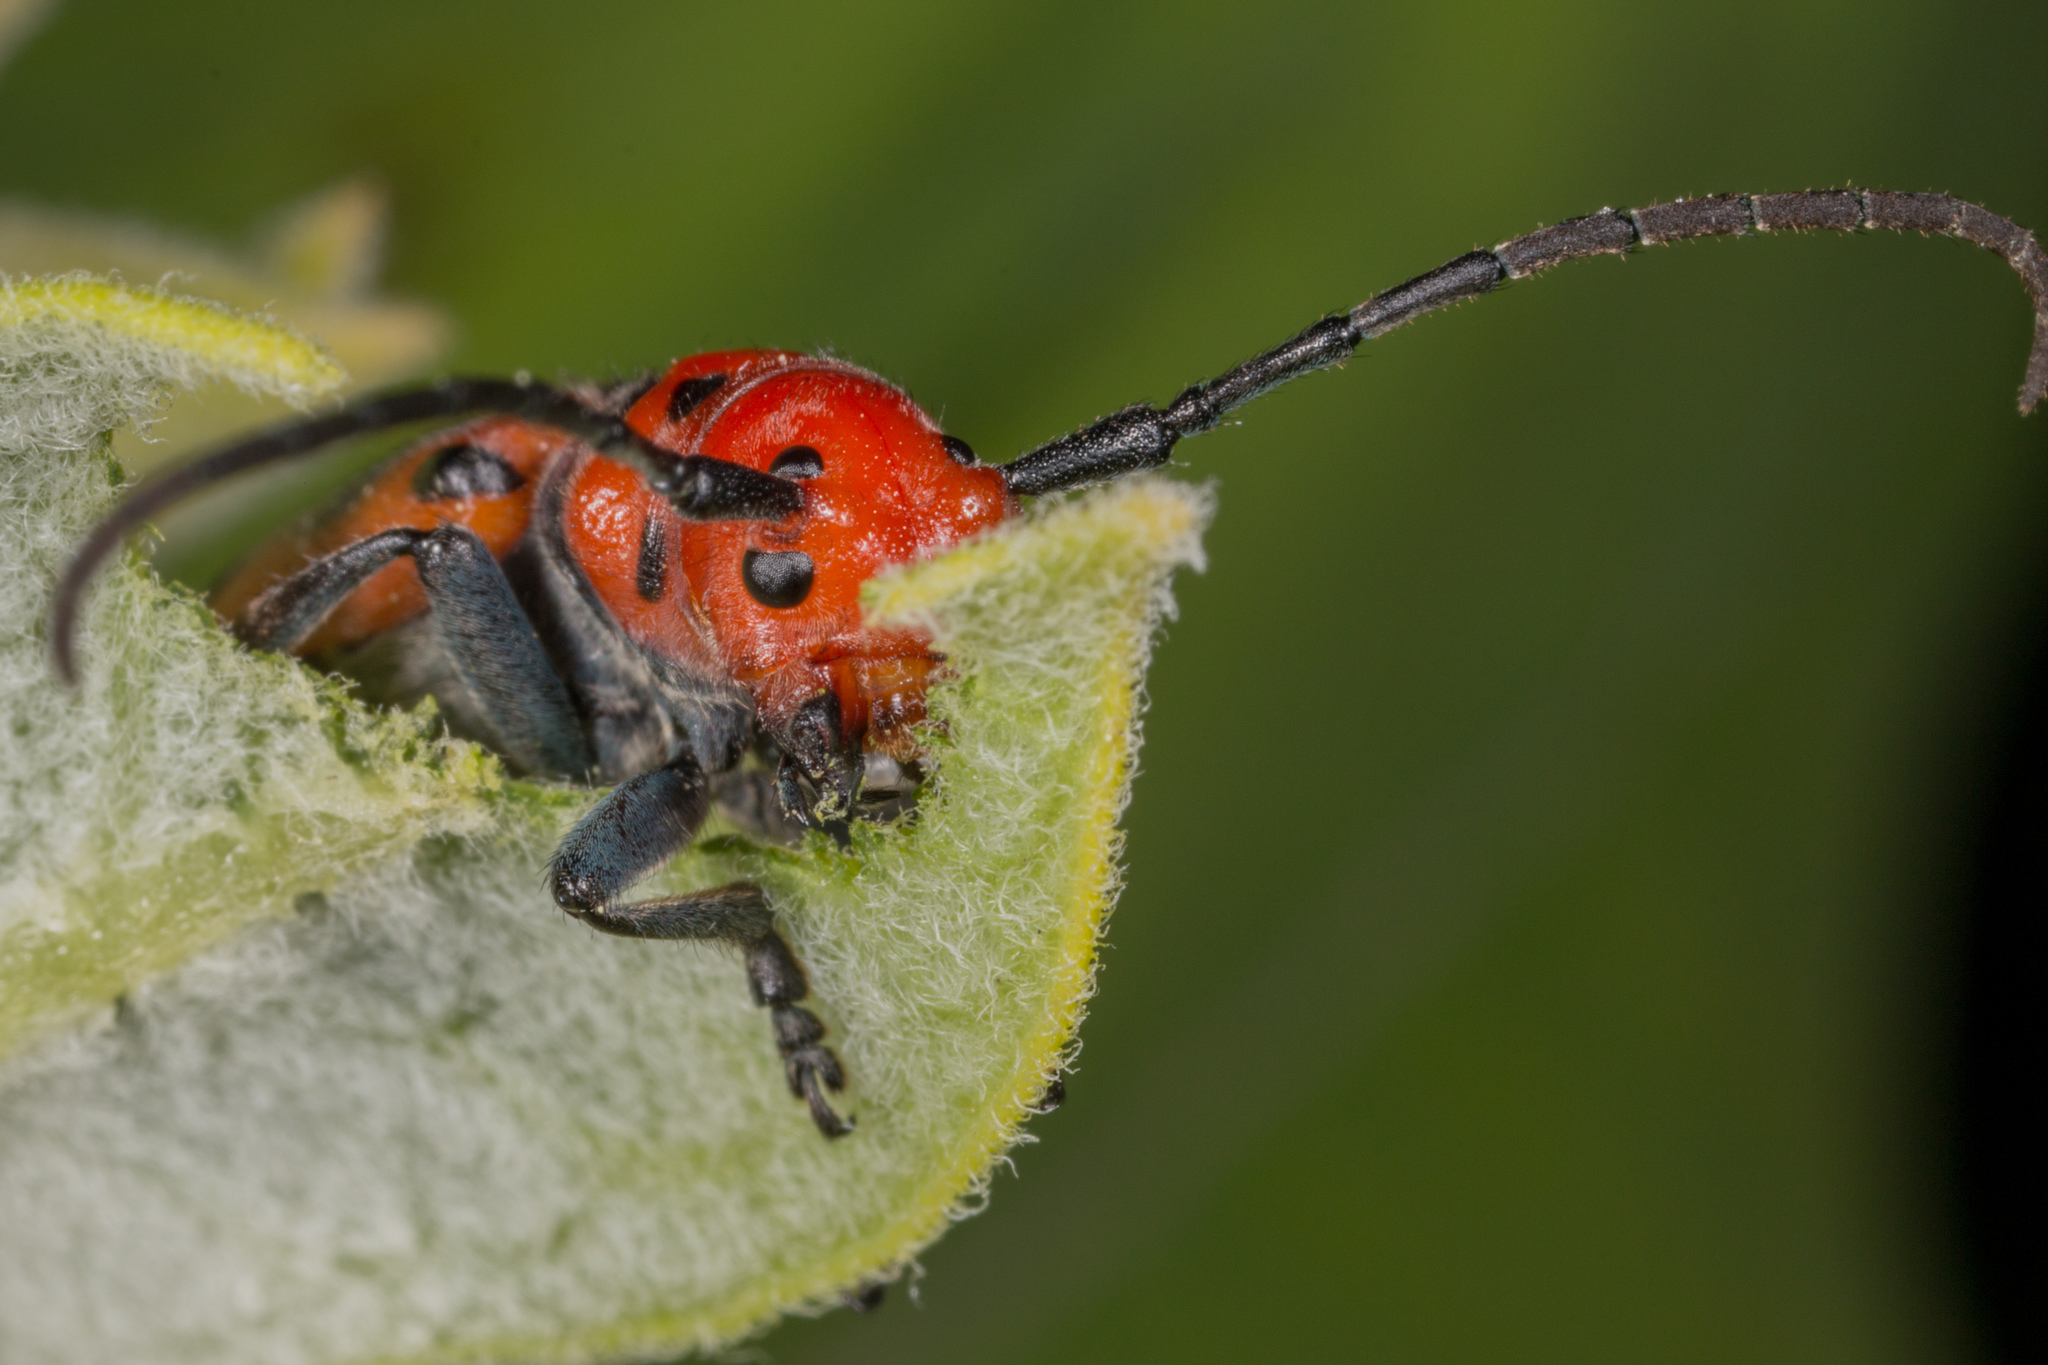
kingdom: Animalia
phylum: Arthropoda
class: Insecta
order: Coleoptera
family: Cerambycidae
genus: Tetraopes
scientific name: Tetraopes tetrophthalmus
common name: Red milkweed beetle
